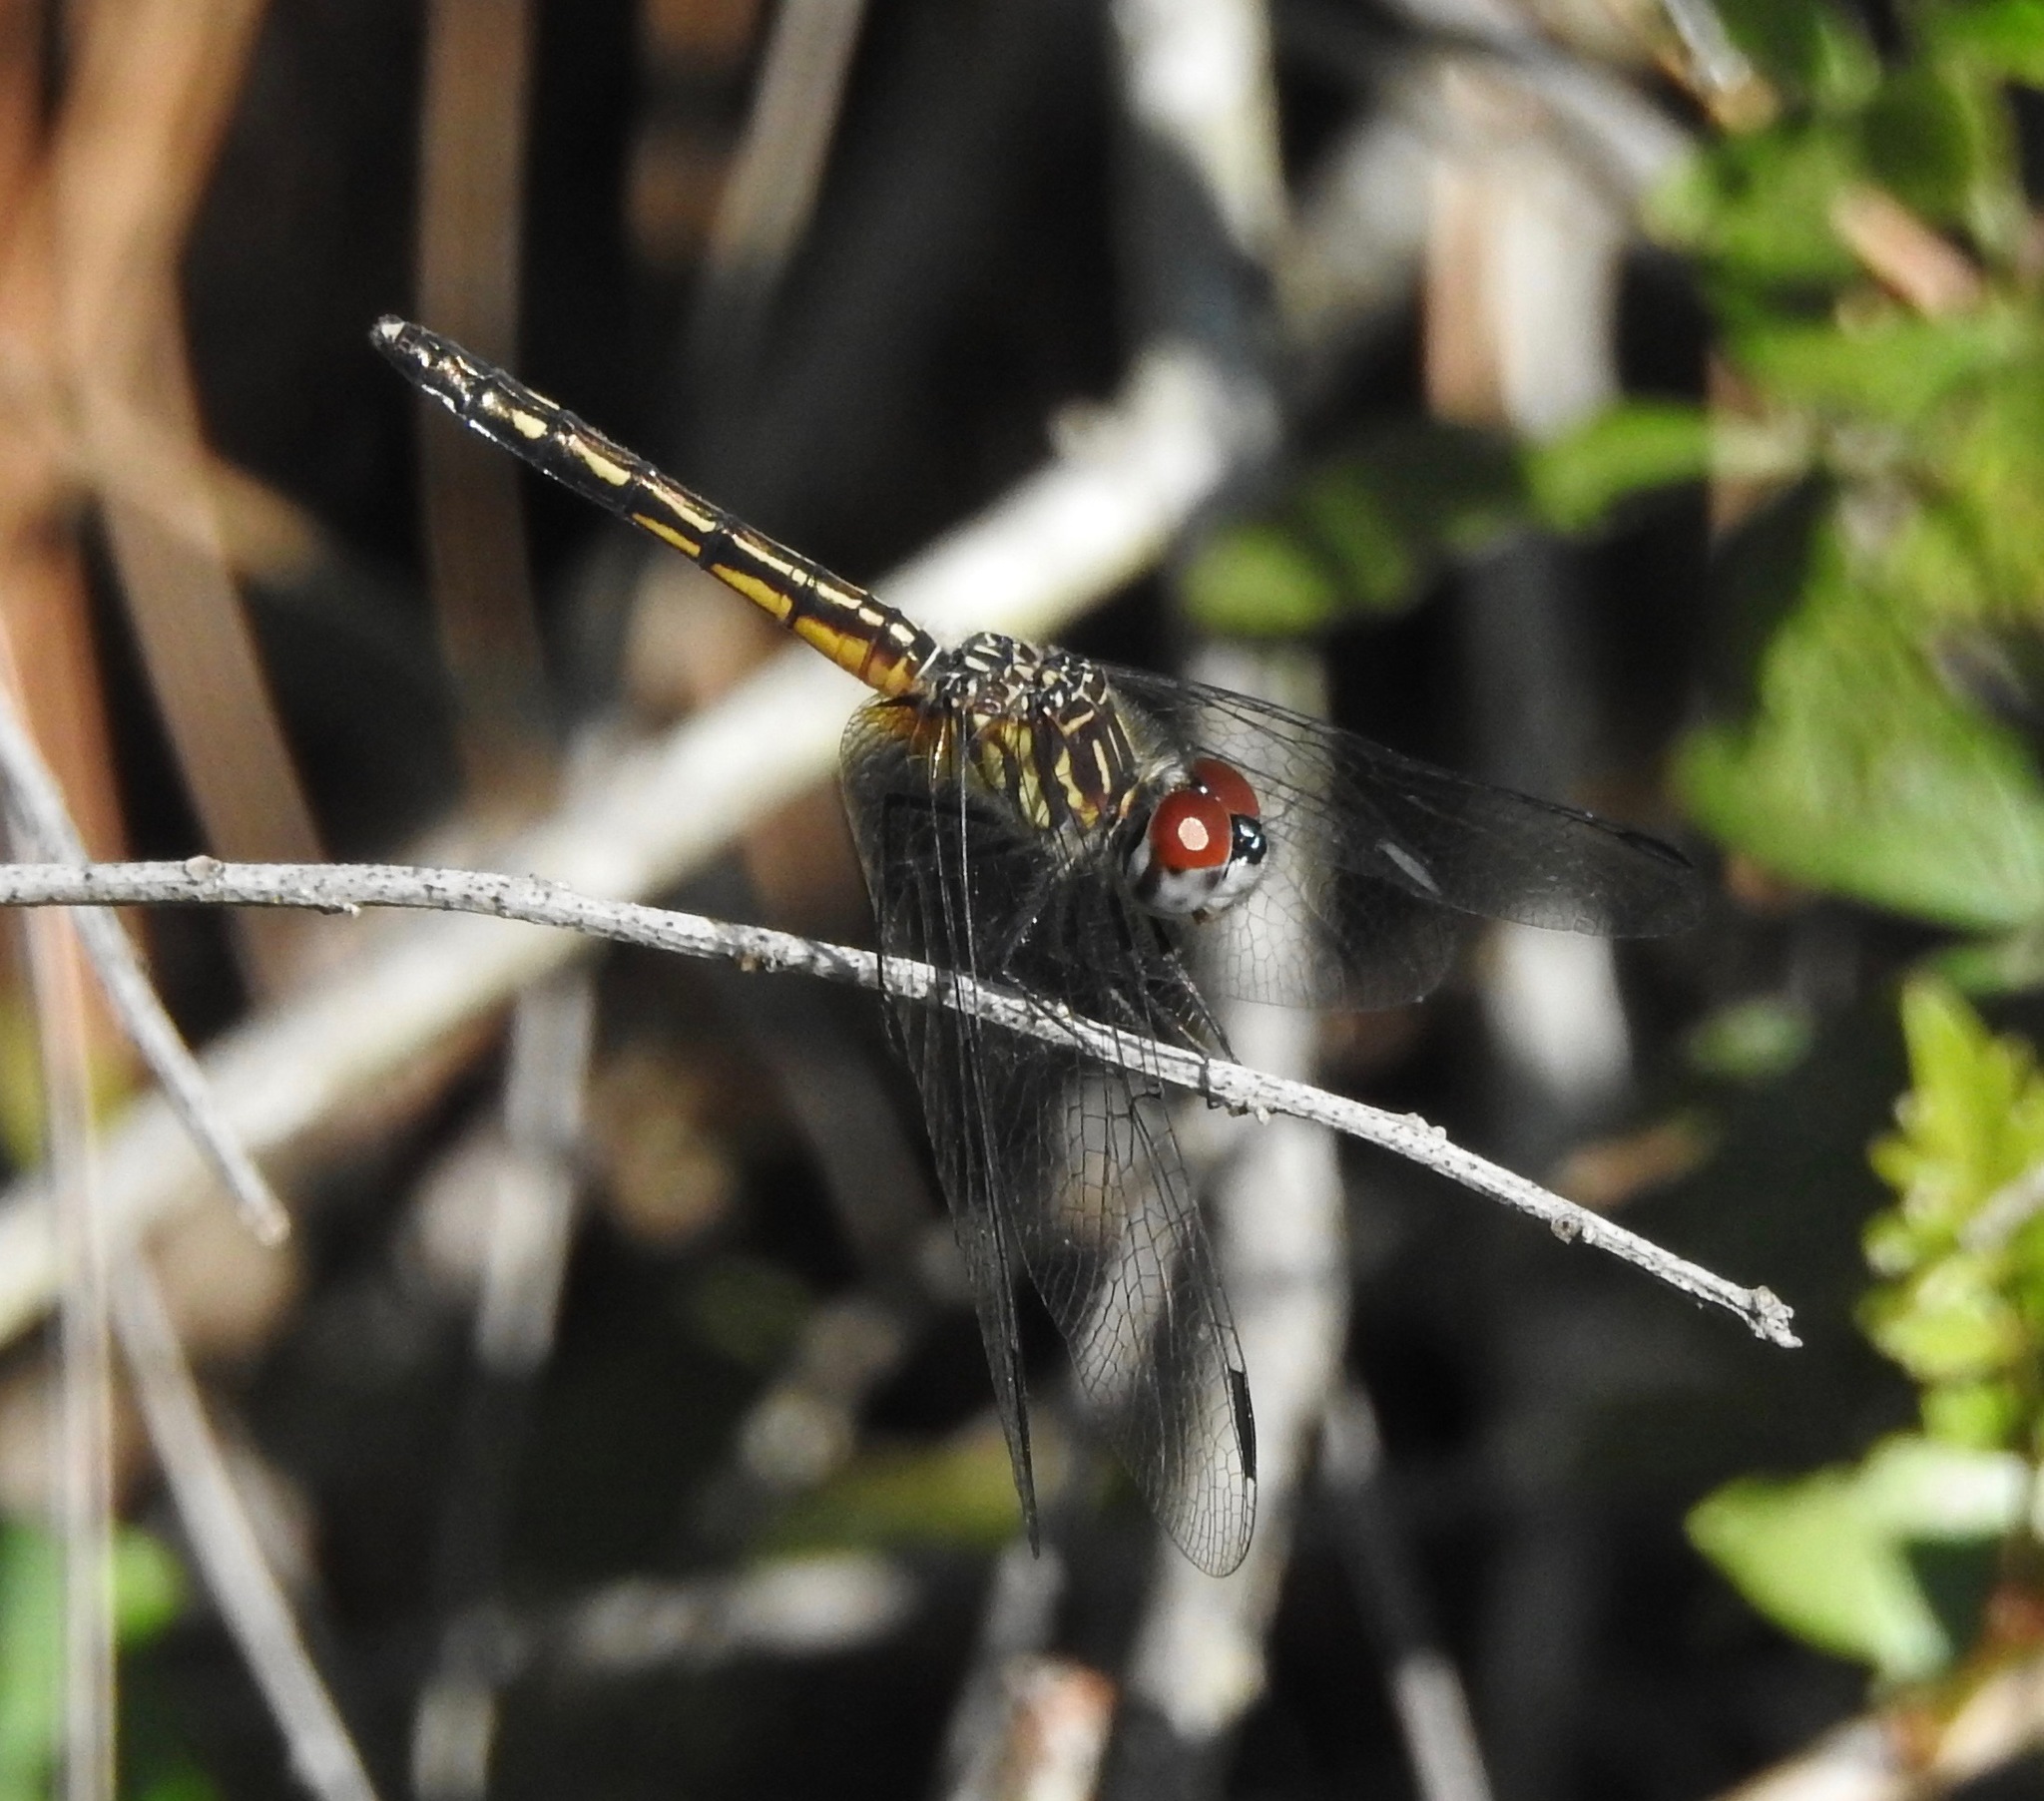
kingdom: Animalia
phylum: Arthropoda
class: Insecta
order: Odonata
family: Libellulidae
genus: Pachydiplax
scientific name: Pachydiplax longipennis
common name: Blue dasher
